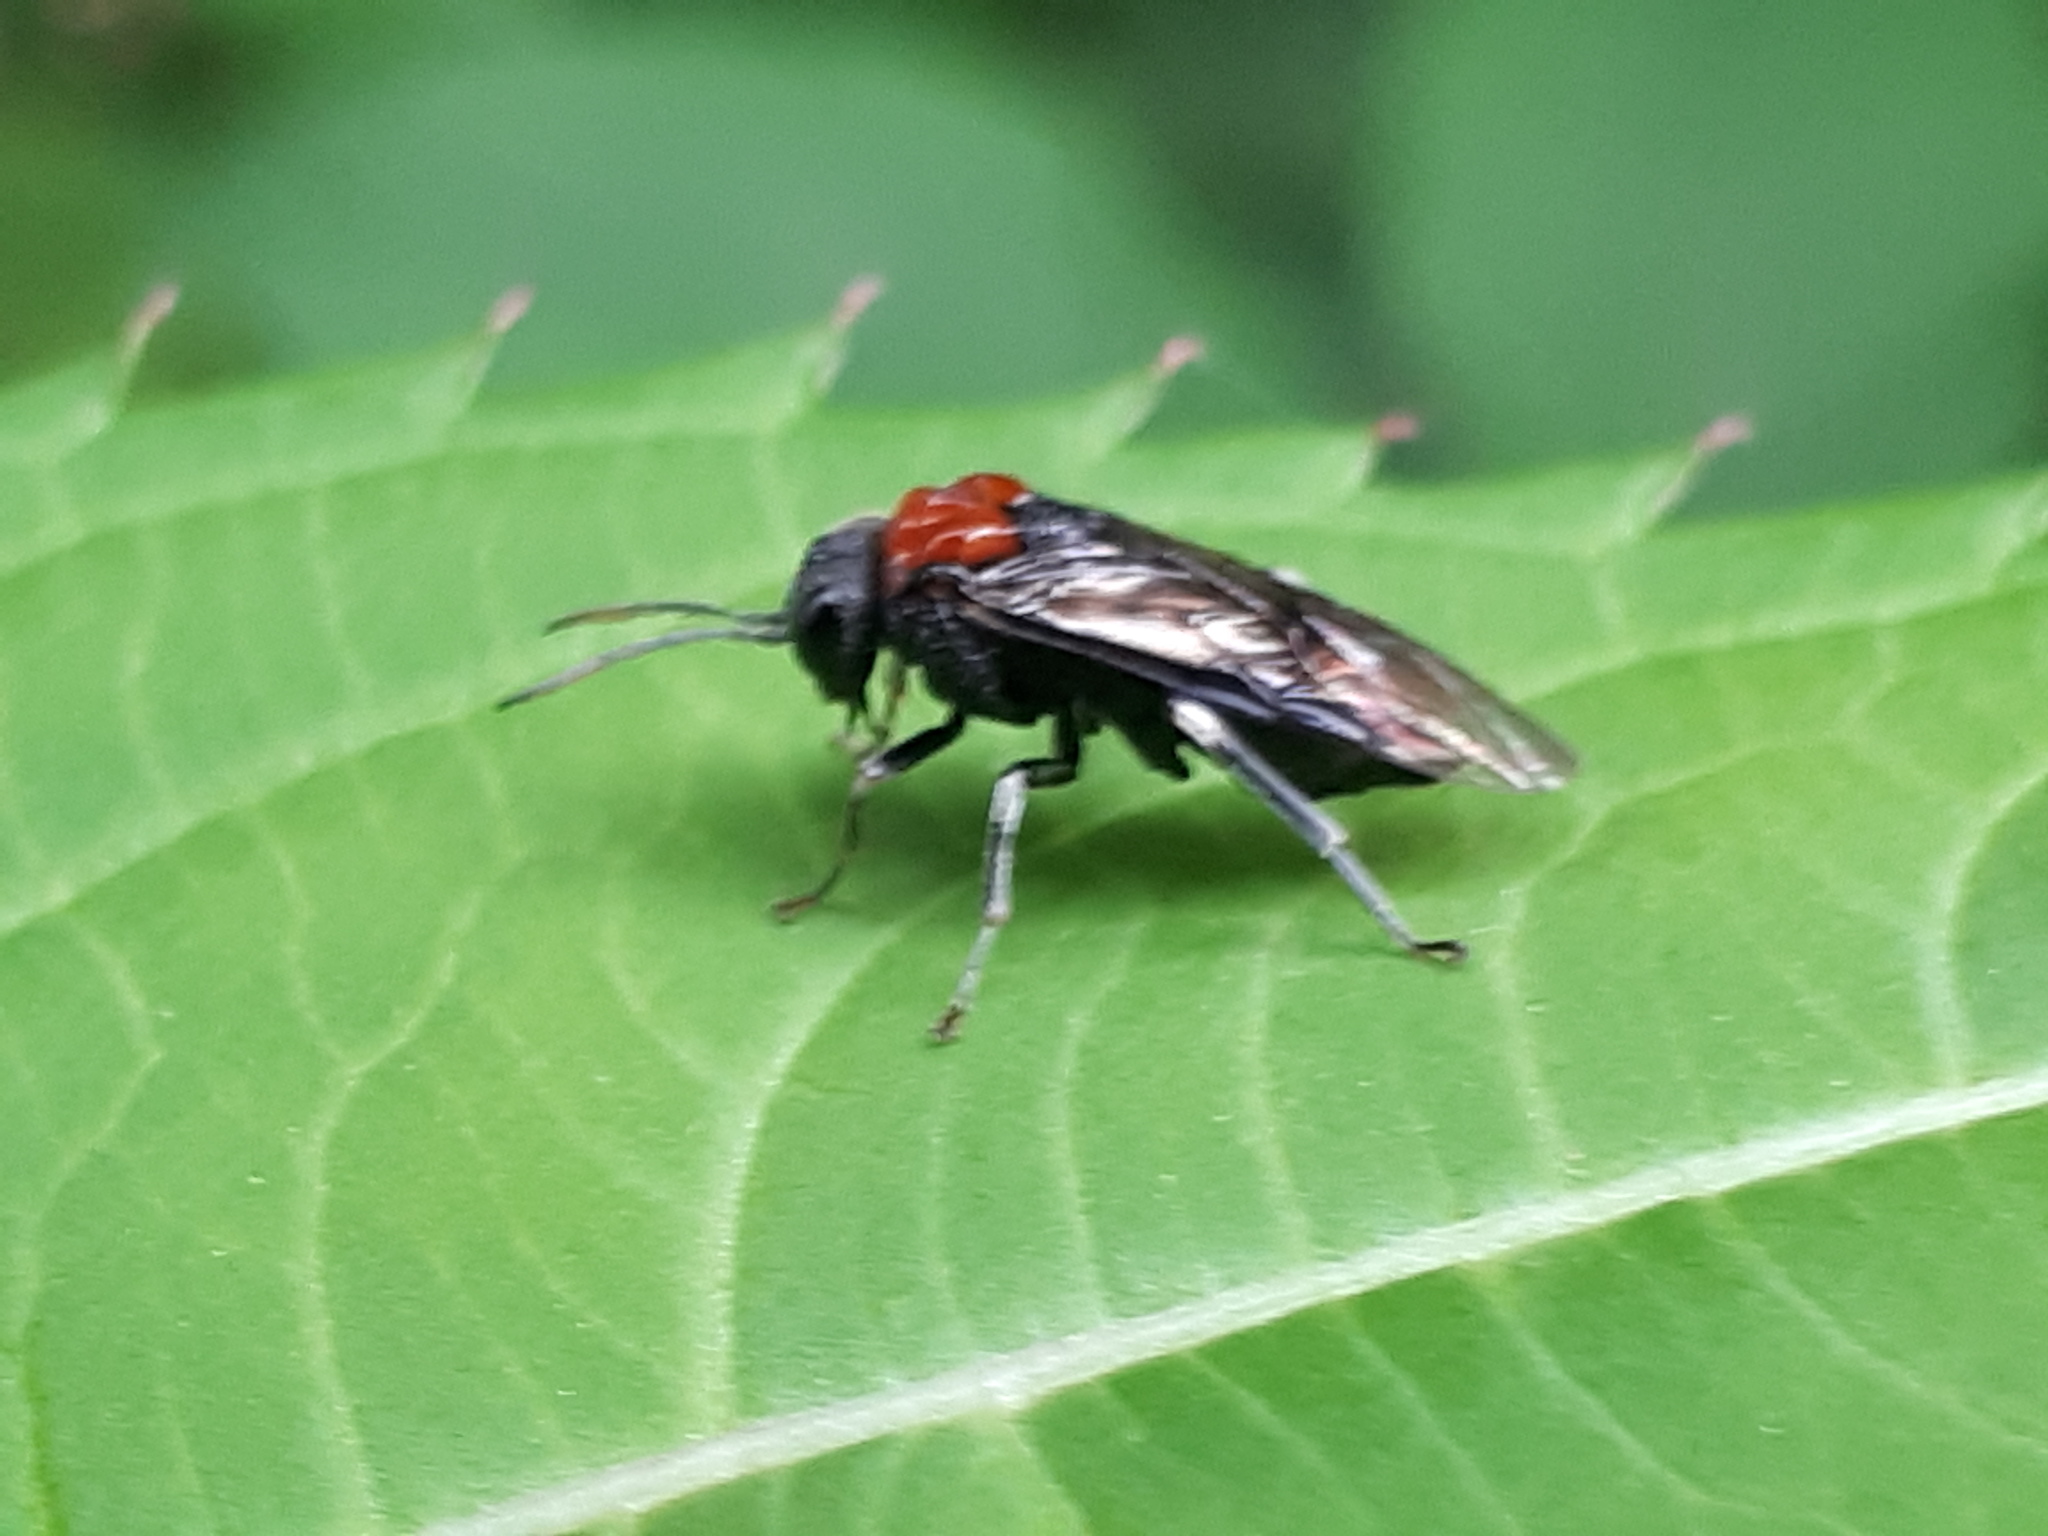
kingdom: Animalia
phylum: Arthropoda
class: Insecta
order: Hymenoptera
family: Tenthredinidae
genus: Eriocampa
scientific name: Eriocampa ovata
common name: Alder wooly sawfly
